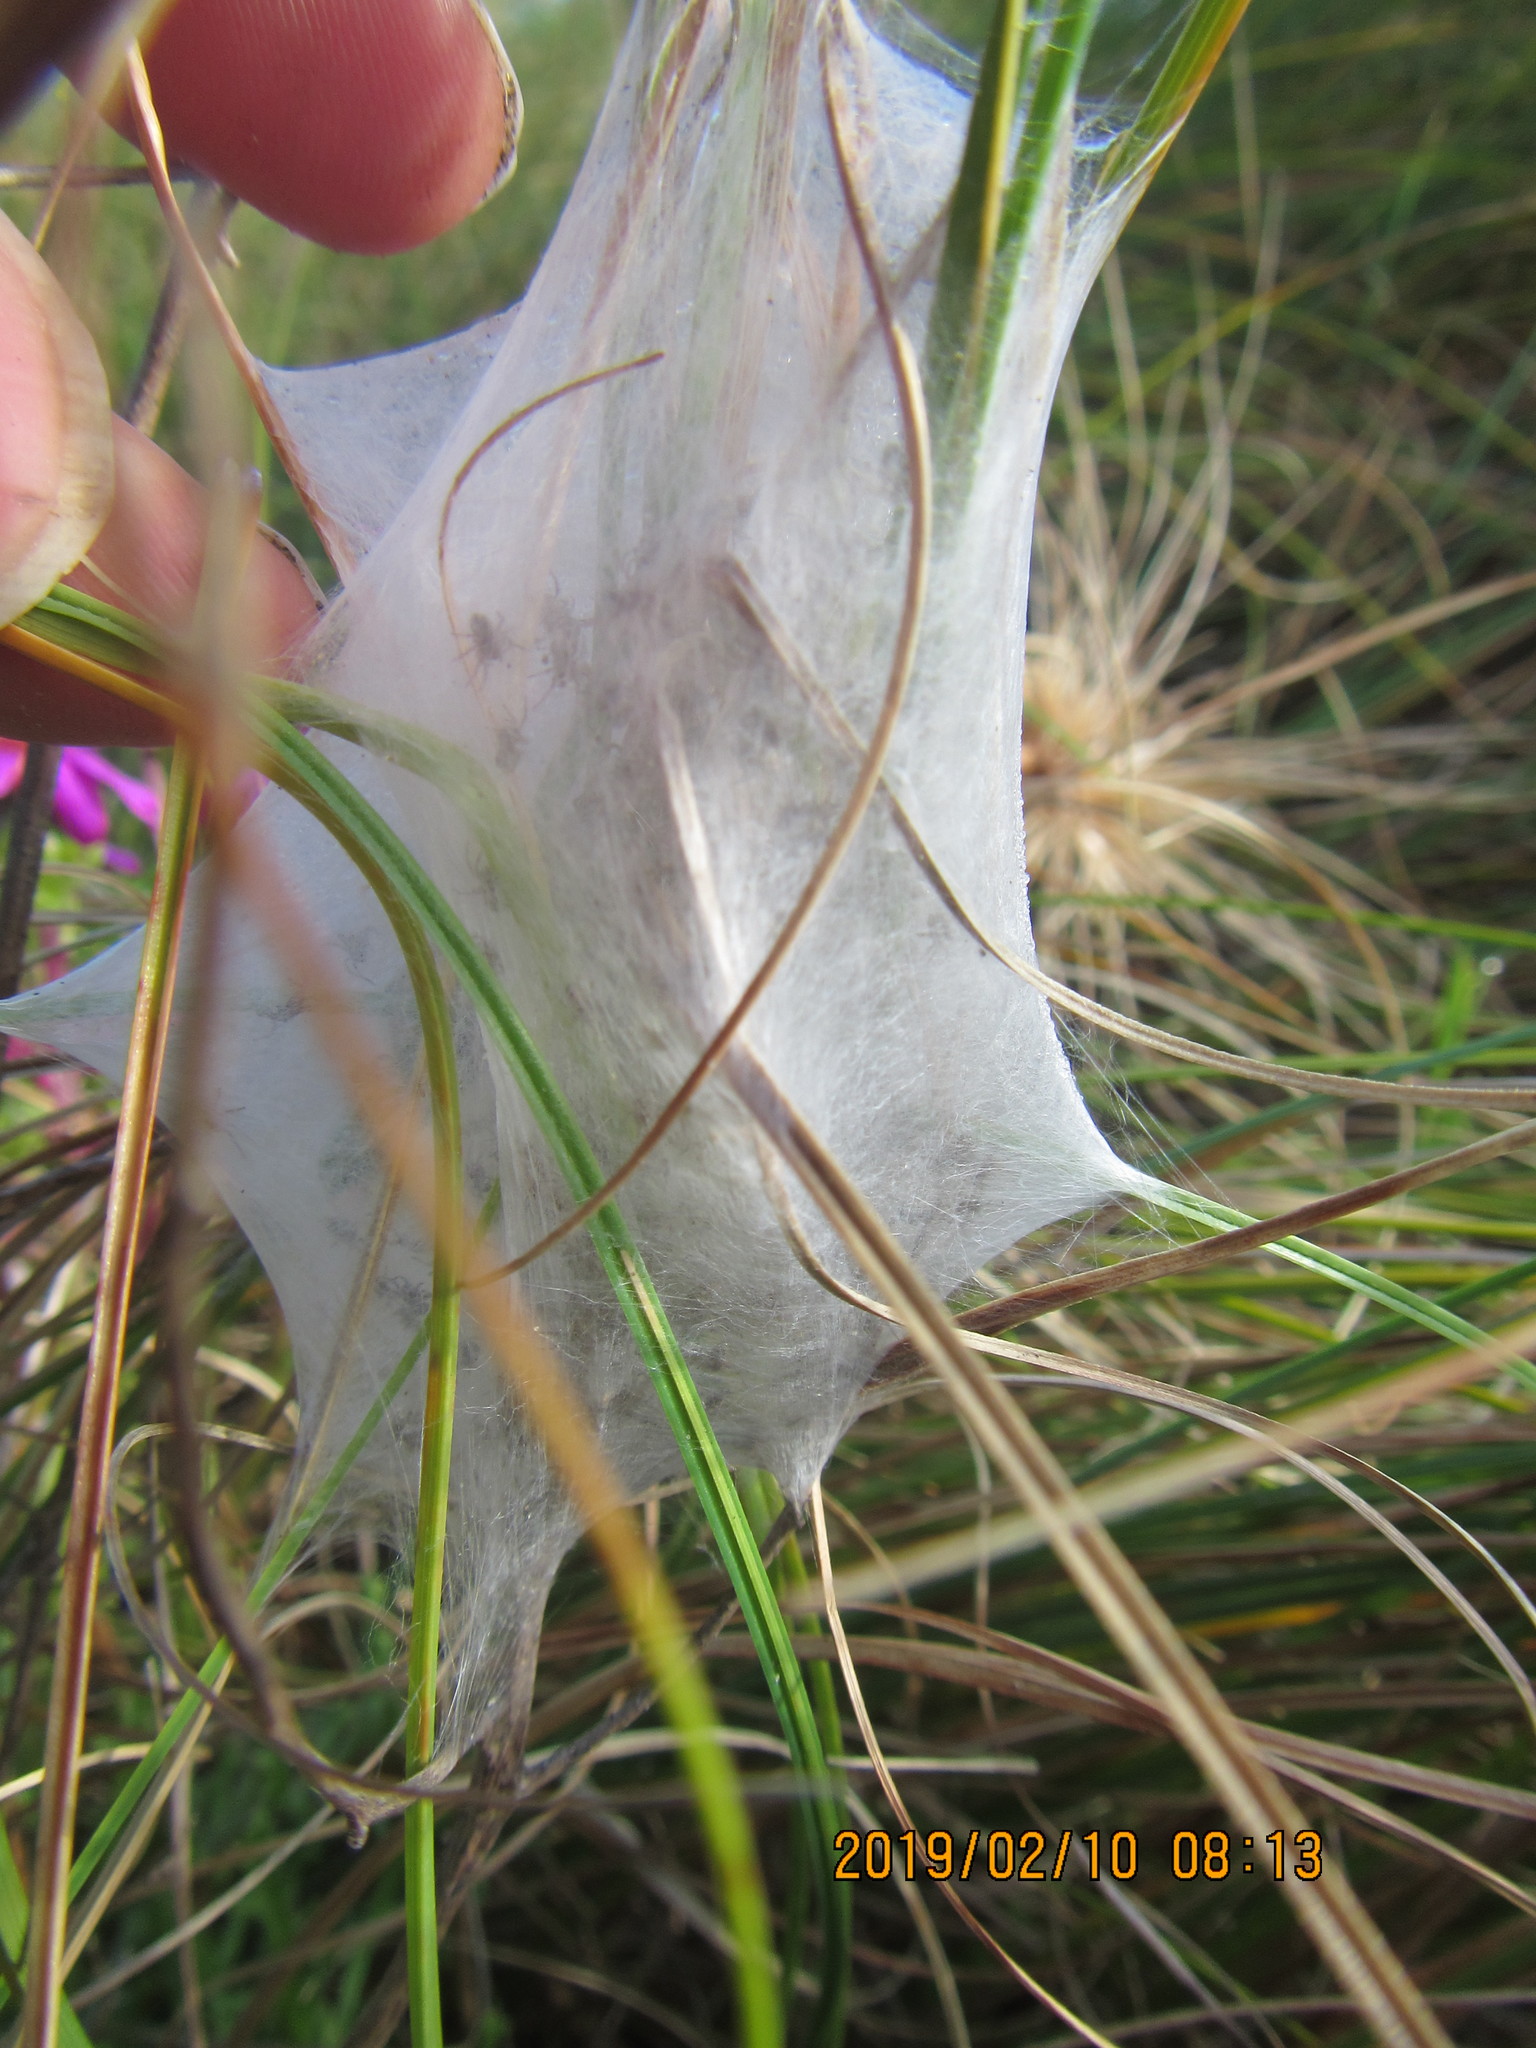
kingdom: Animalia
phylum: Arthropoda
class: Arachnida
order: Araneae
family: Pisauridae
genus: Dolomedes
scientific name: Dolomedes minor
